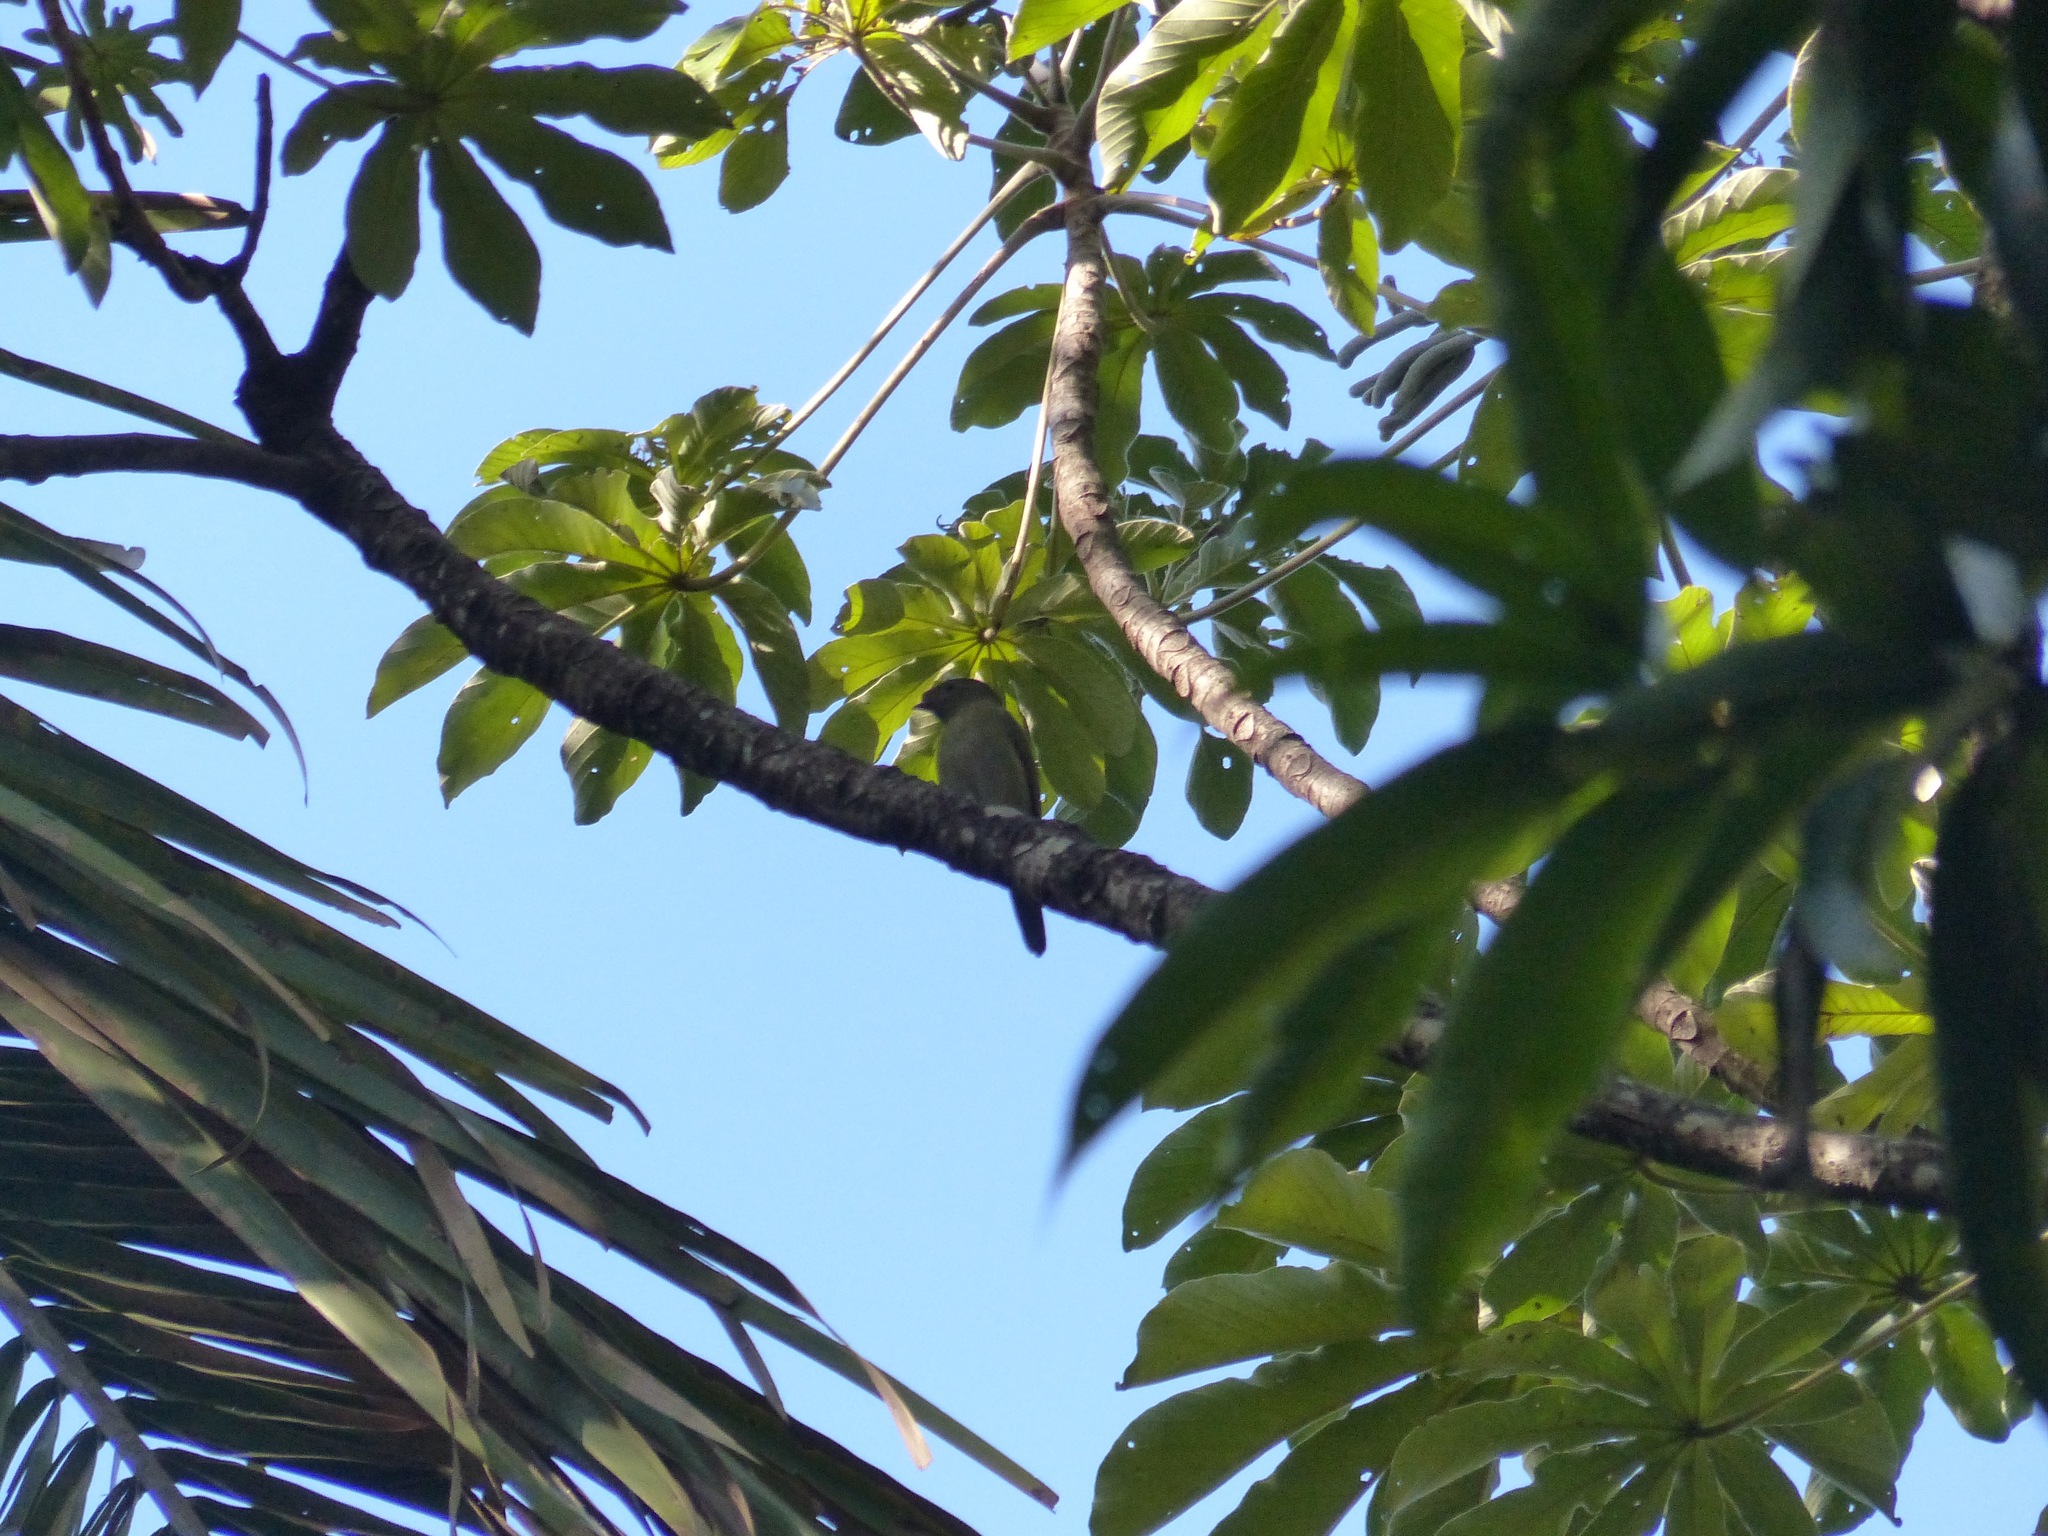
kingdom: Animalia
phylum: Chordata
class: Aves
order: Passeriformes
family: Pipridae
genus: Antilophia
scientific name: Antilophia bokermanni
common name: Araripe manakin
